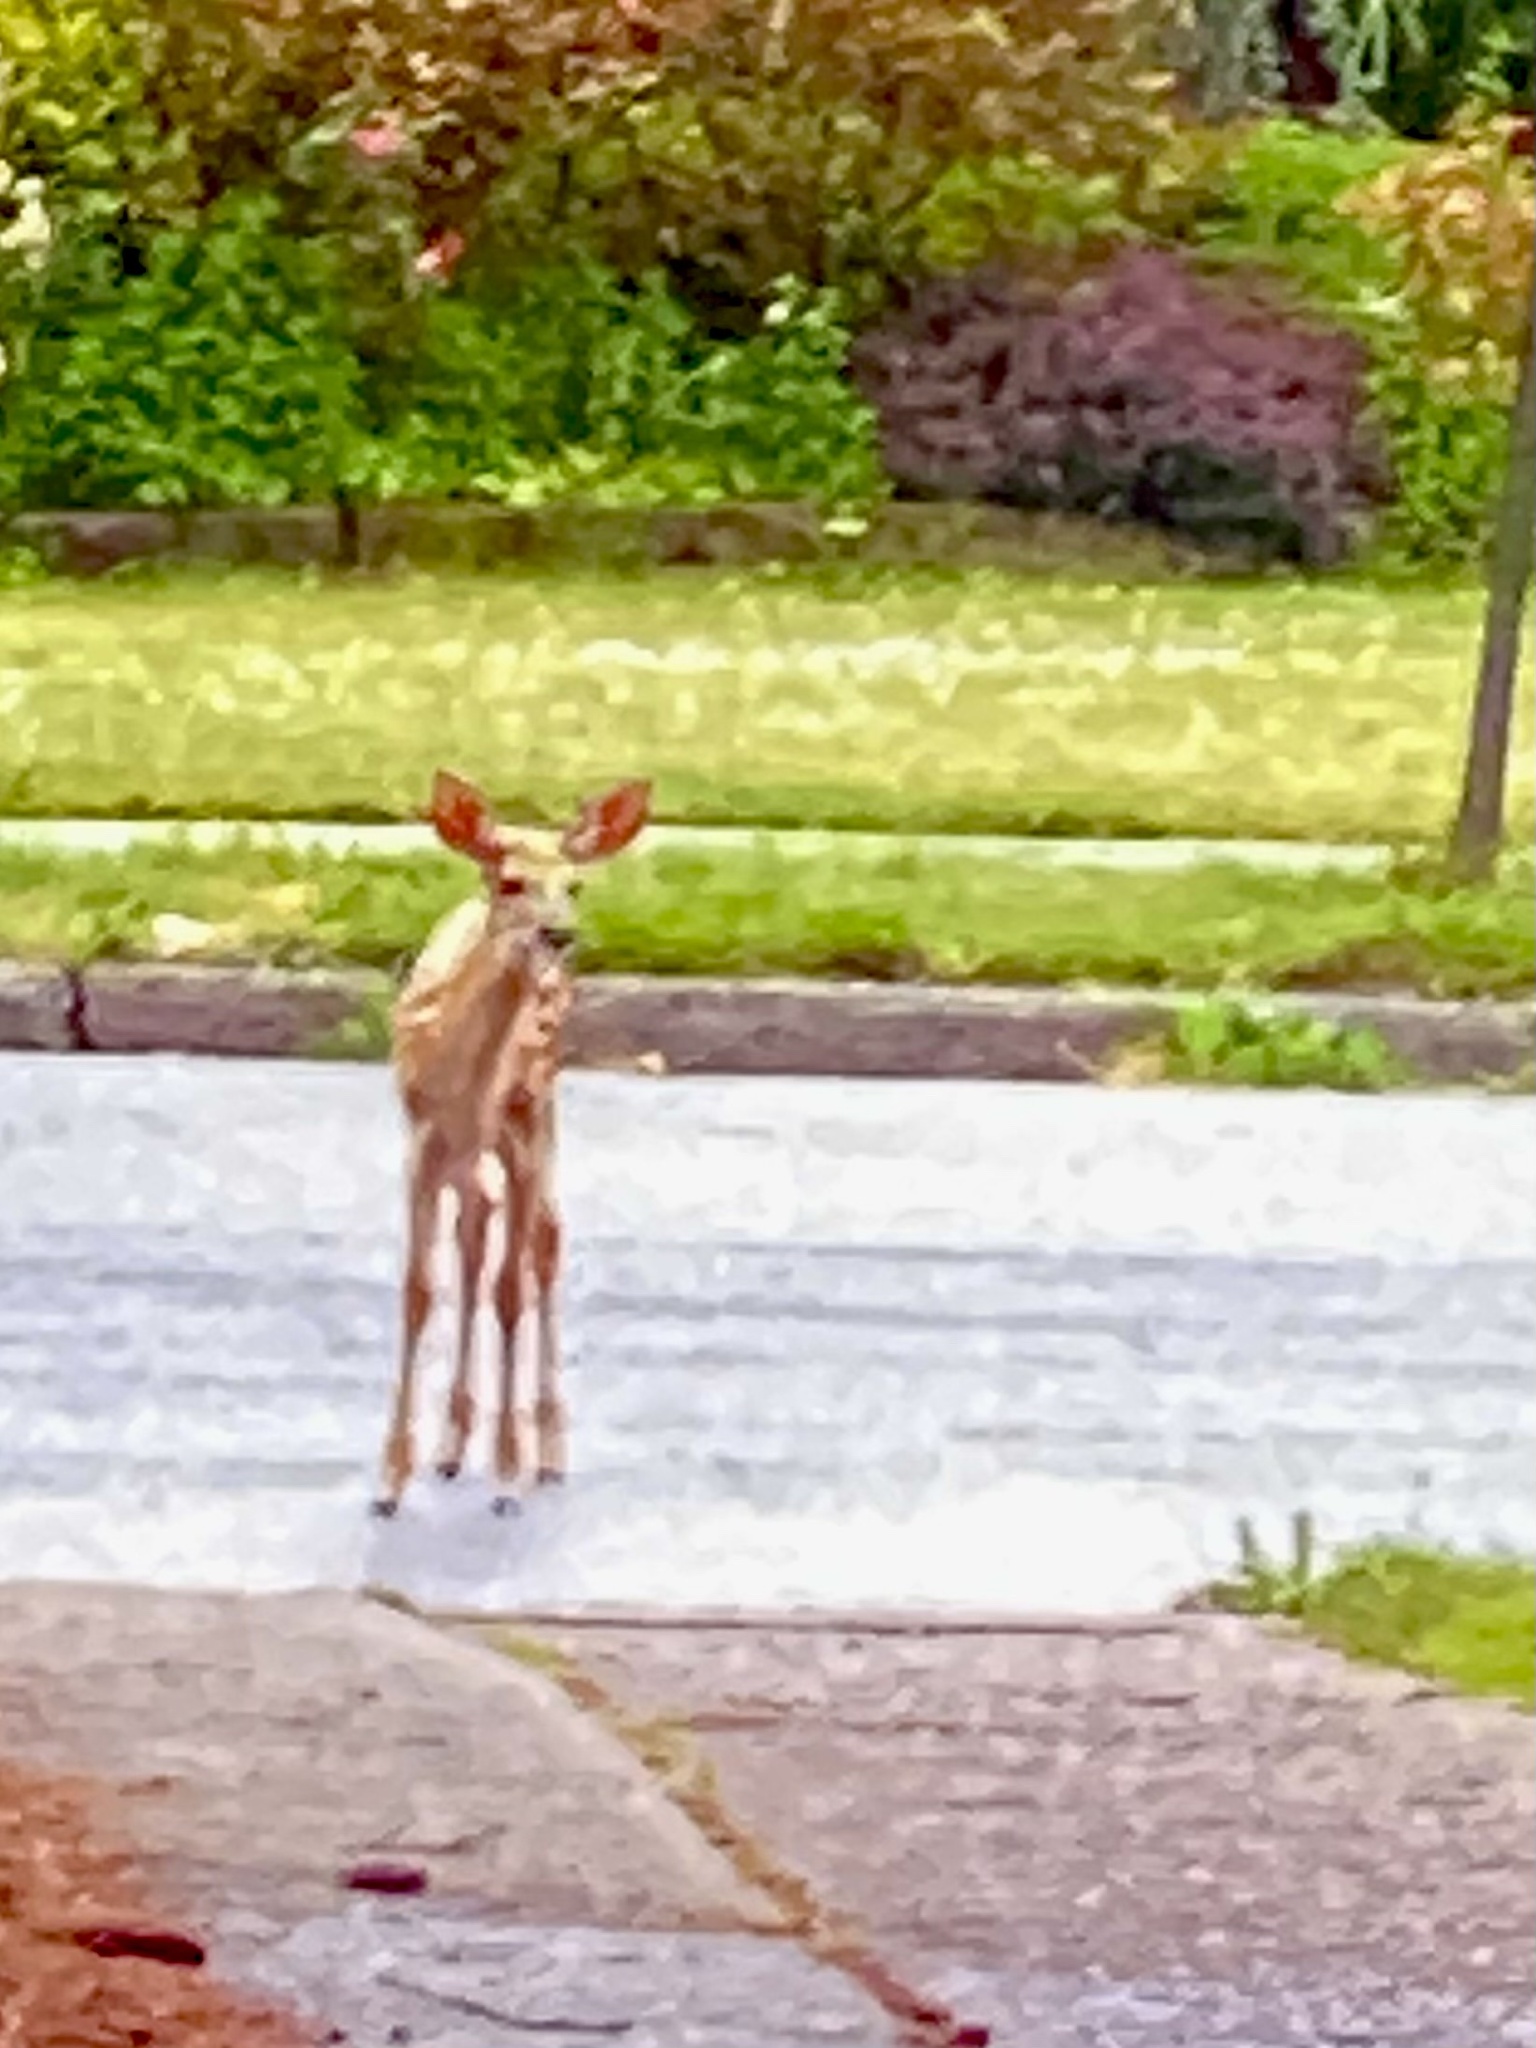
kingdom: Animalia
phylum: Chordata
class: Mammalia
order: Artiodactyla
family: Cervidae
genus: Odocoileus
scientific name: Odocoileus virginianus
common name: White-tailed deer
